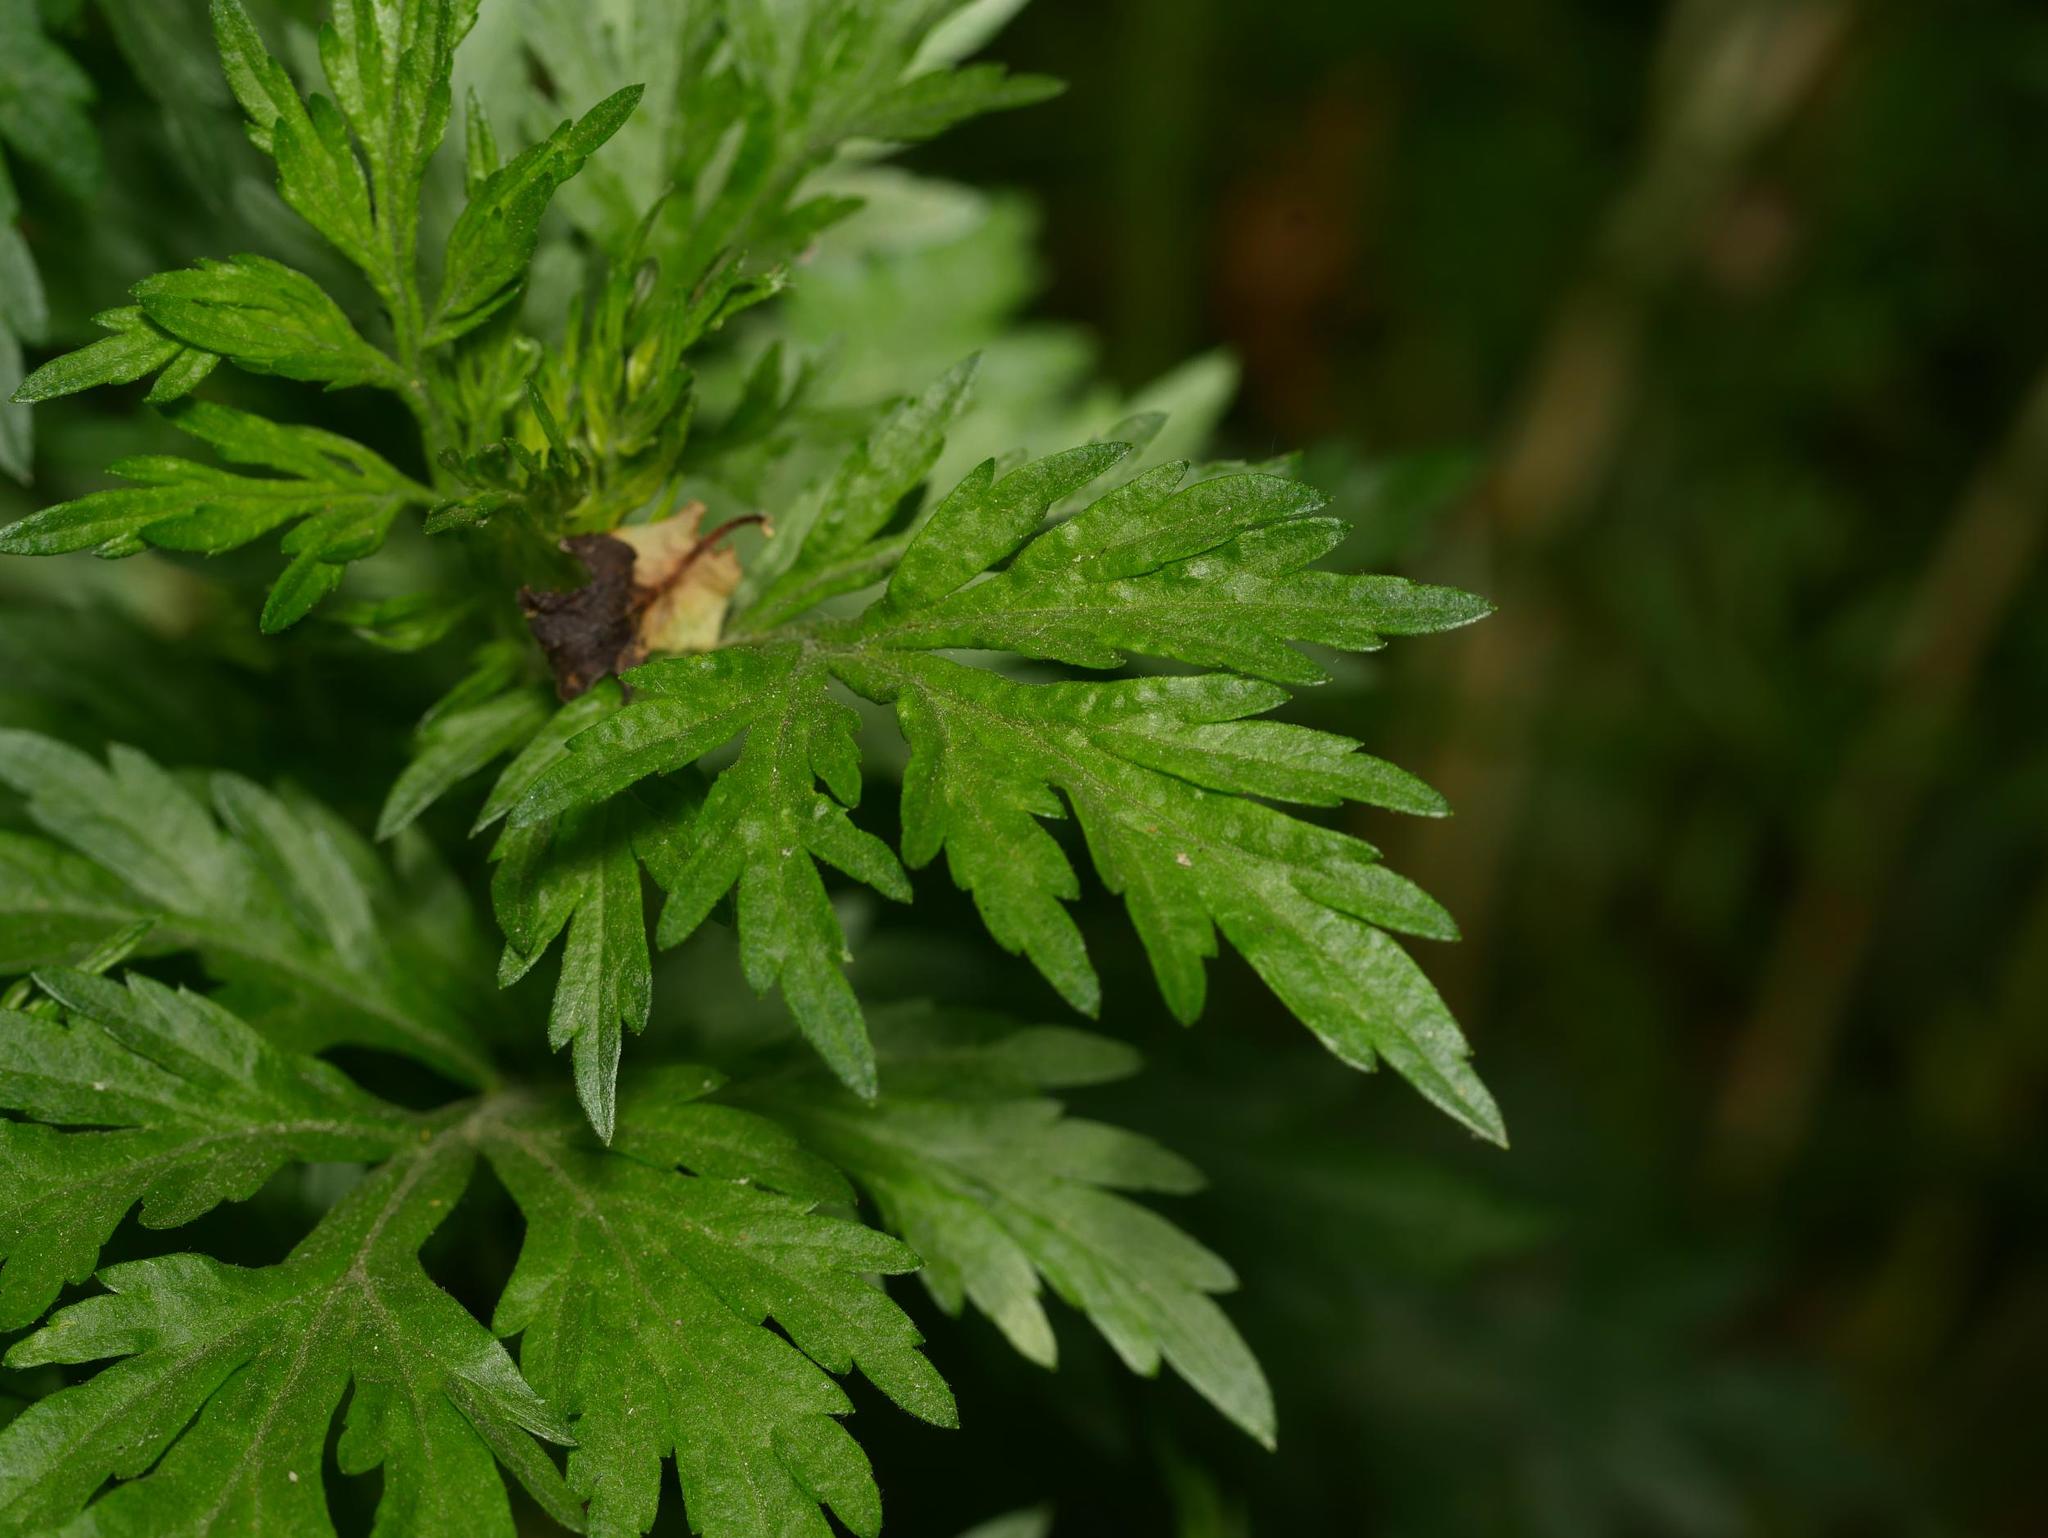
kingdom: Plantae
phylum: Tracheophyta
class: Magnoliopsida
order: Asterales
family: Asteraceae
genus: Artemisia
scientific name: Artemisia vulgaris
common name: Mugwort
